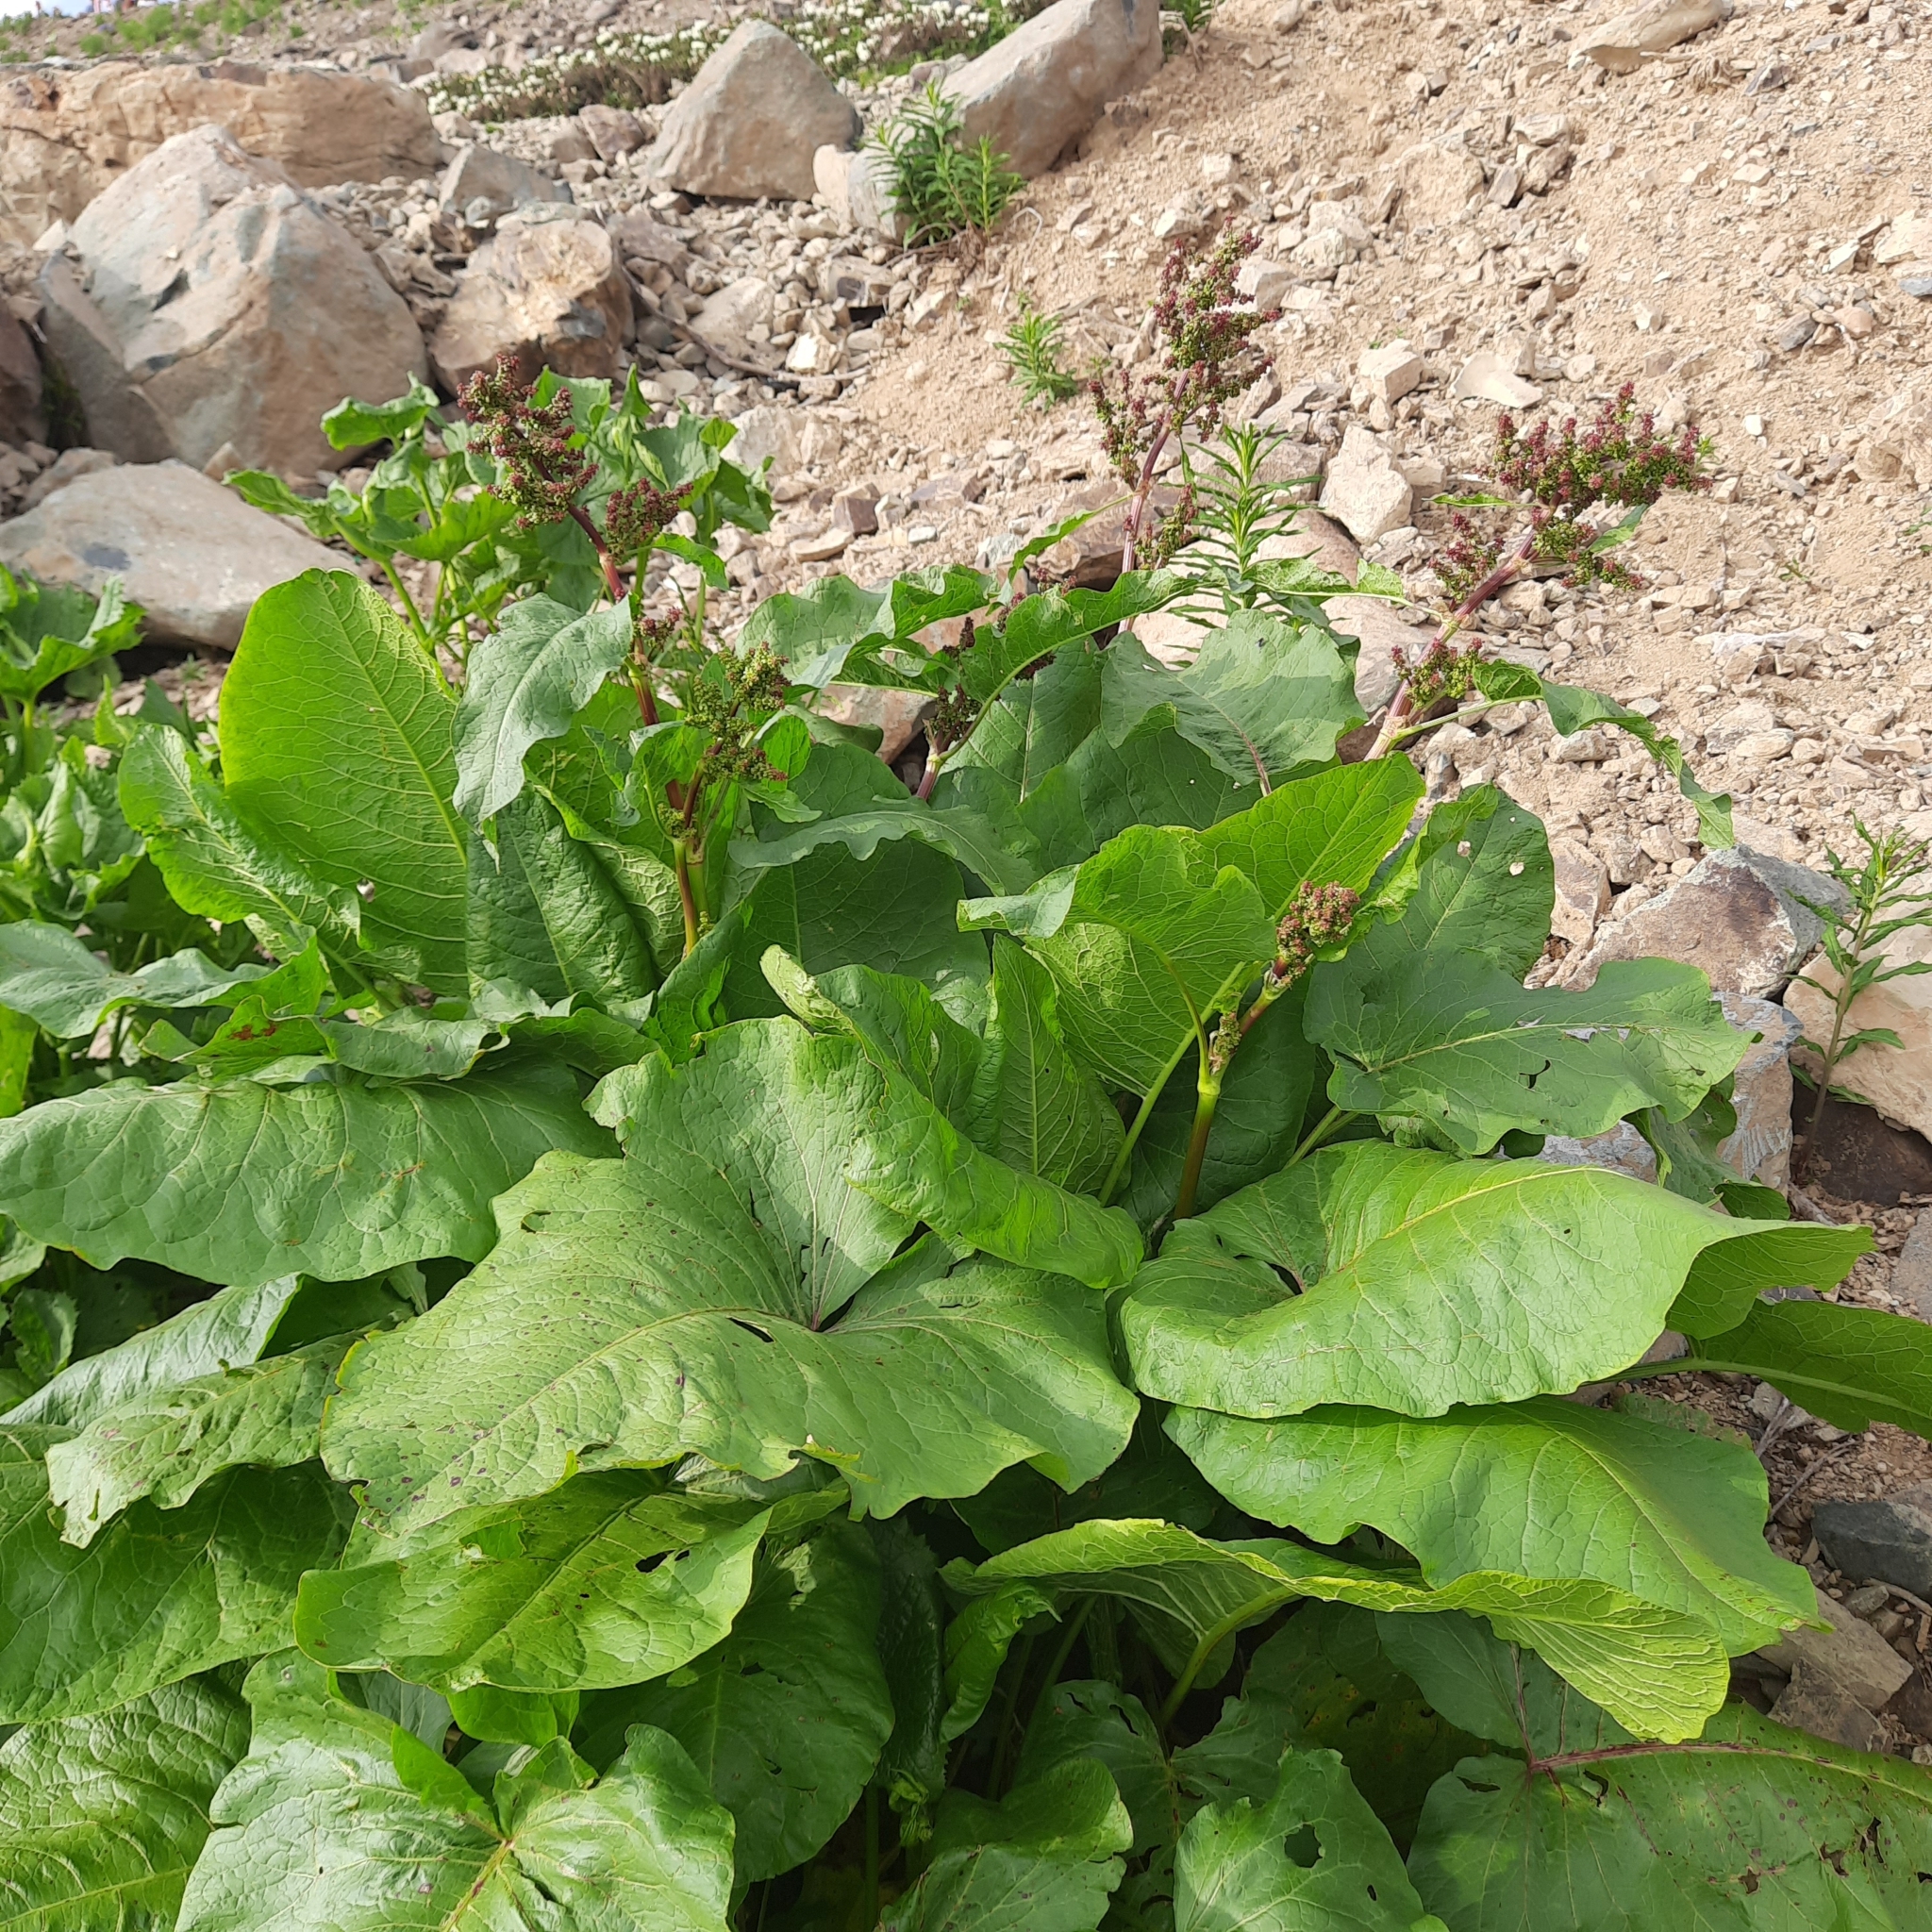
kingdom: Plantae
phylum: Tracheophyta
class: Magnoliopsida
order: Caryophyllales
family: Polygonaceae
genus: Rumex
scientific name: Rumex alpinus
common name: Alpine dock
